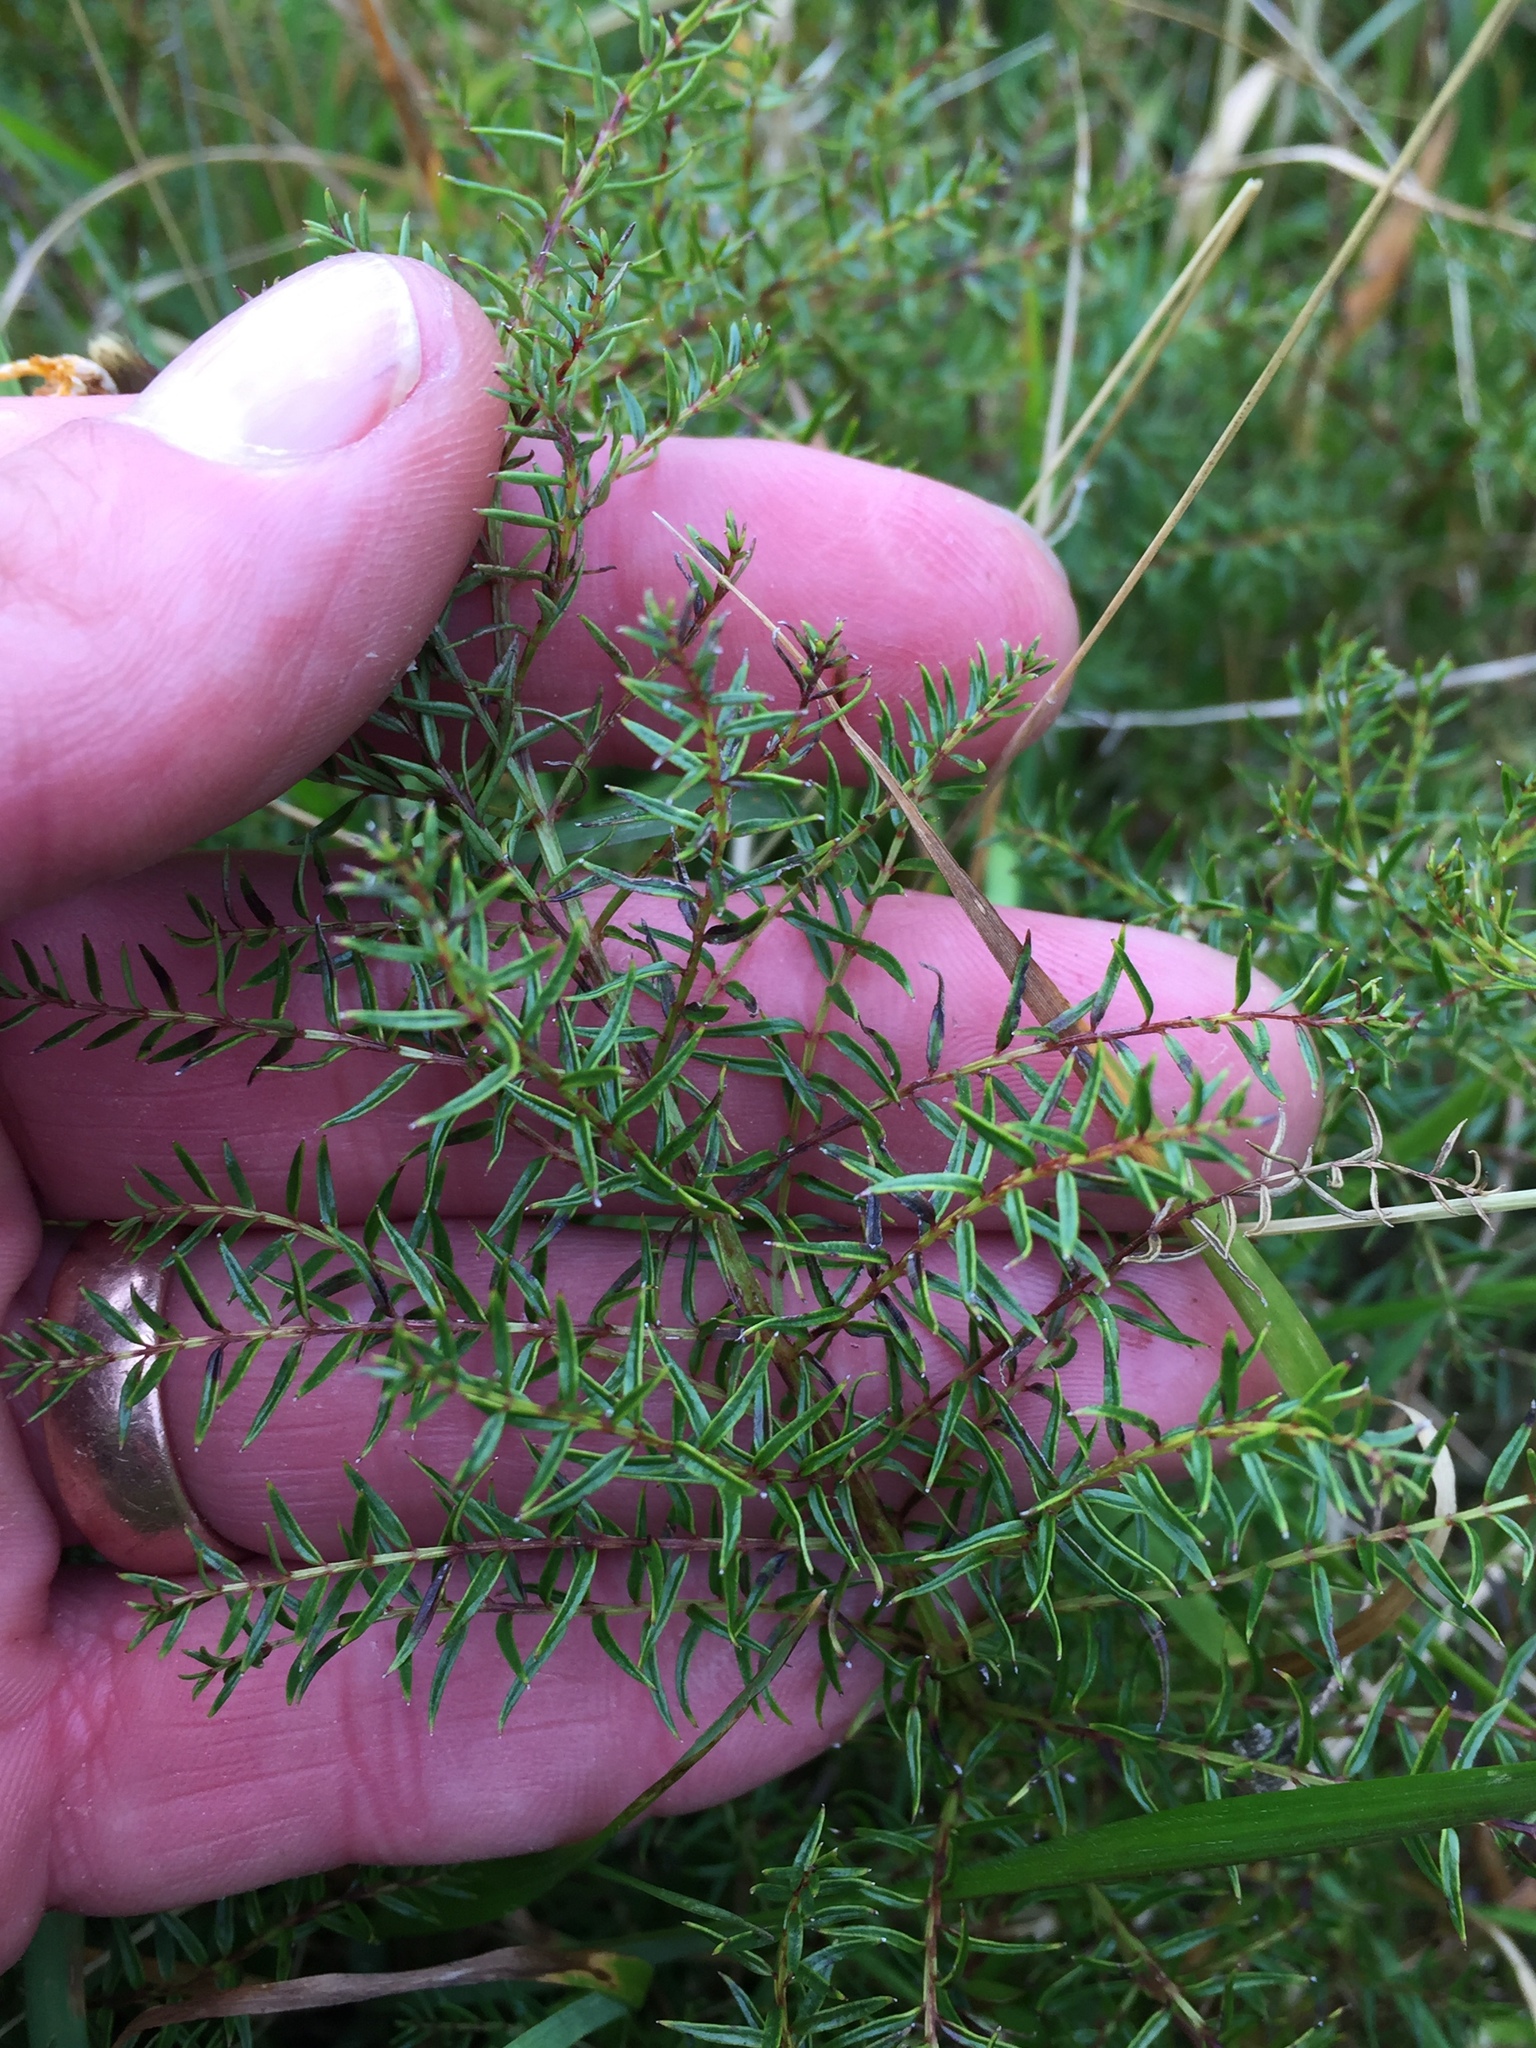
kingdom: Plantae
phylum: Tracheophyta
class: Magnoliopsida
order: Cucurbitales
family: Coriariaceae
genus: Coriaria
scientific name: Coriaria plumosa
